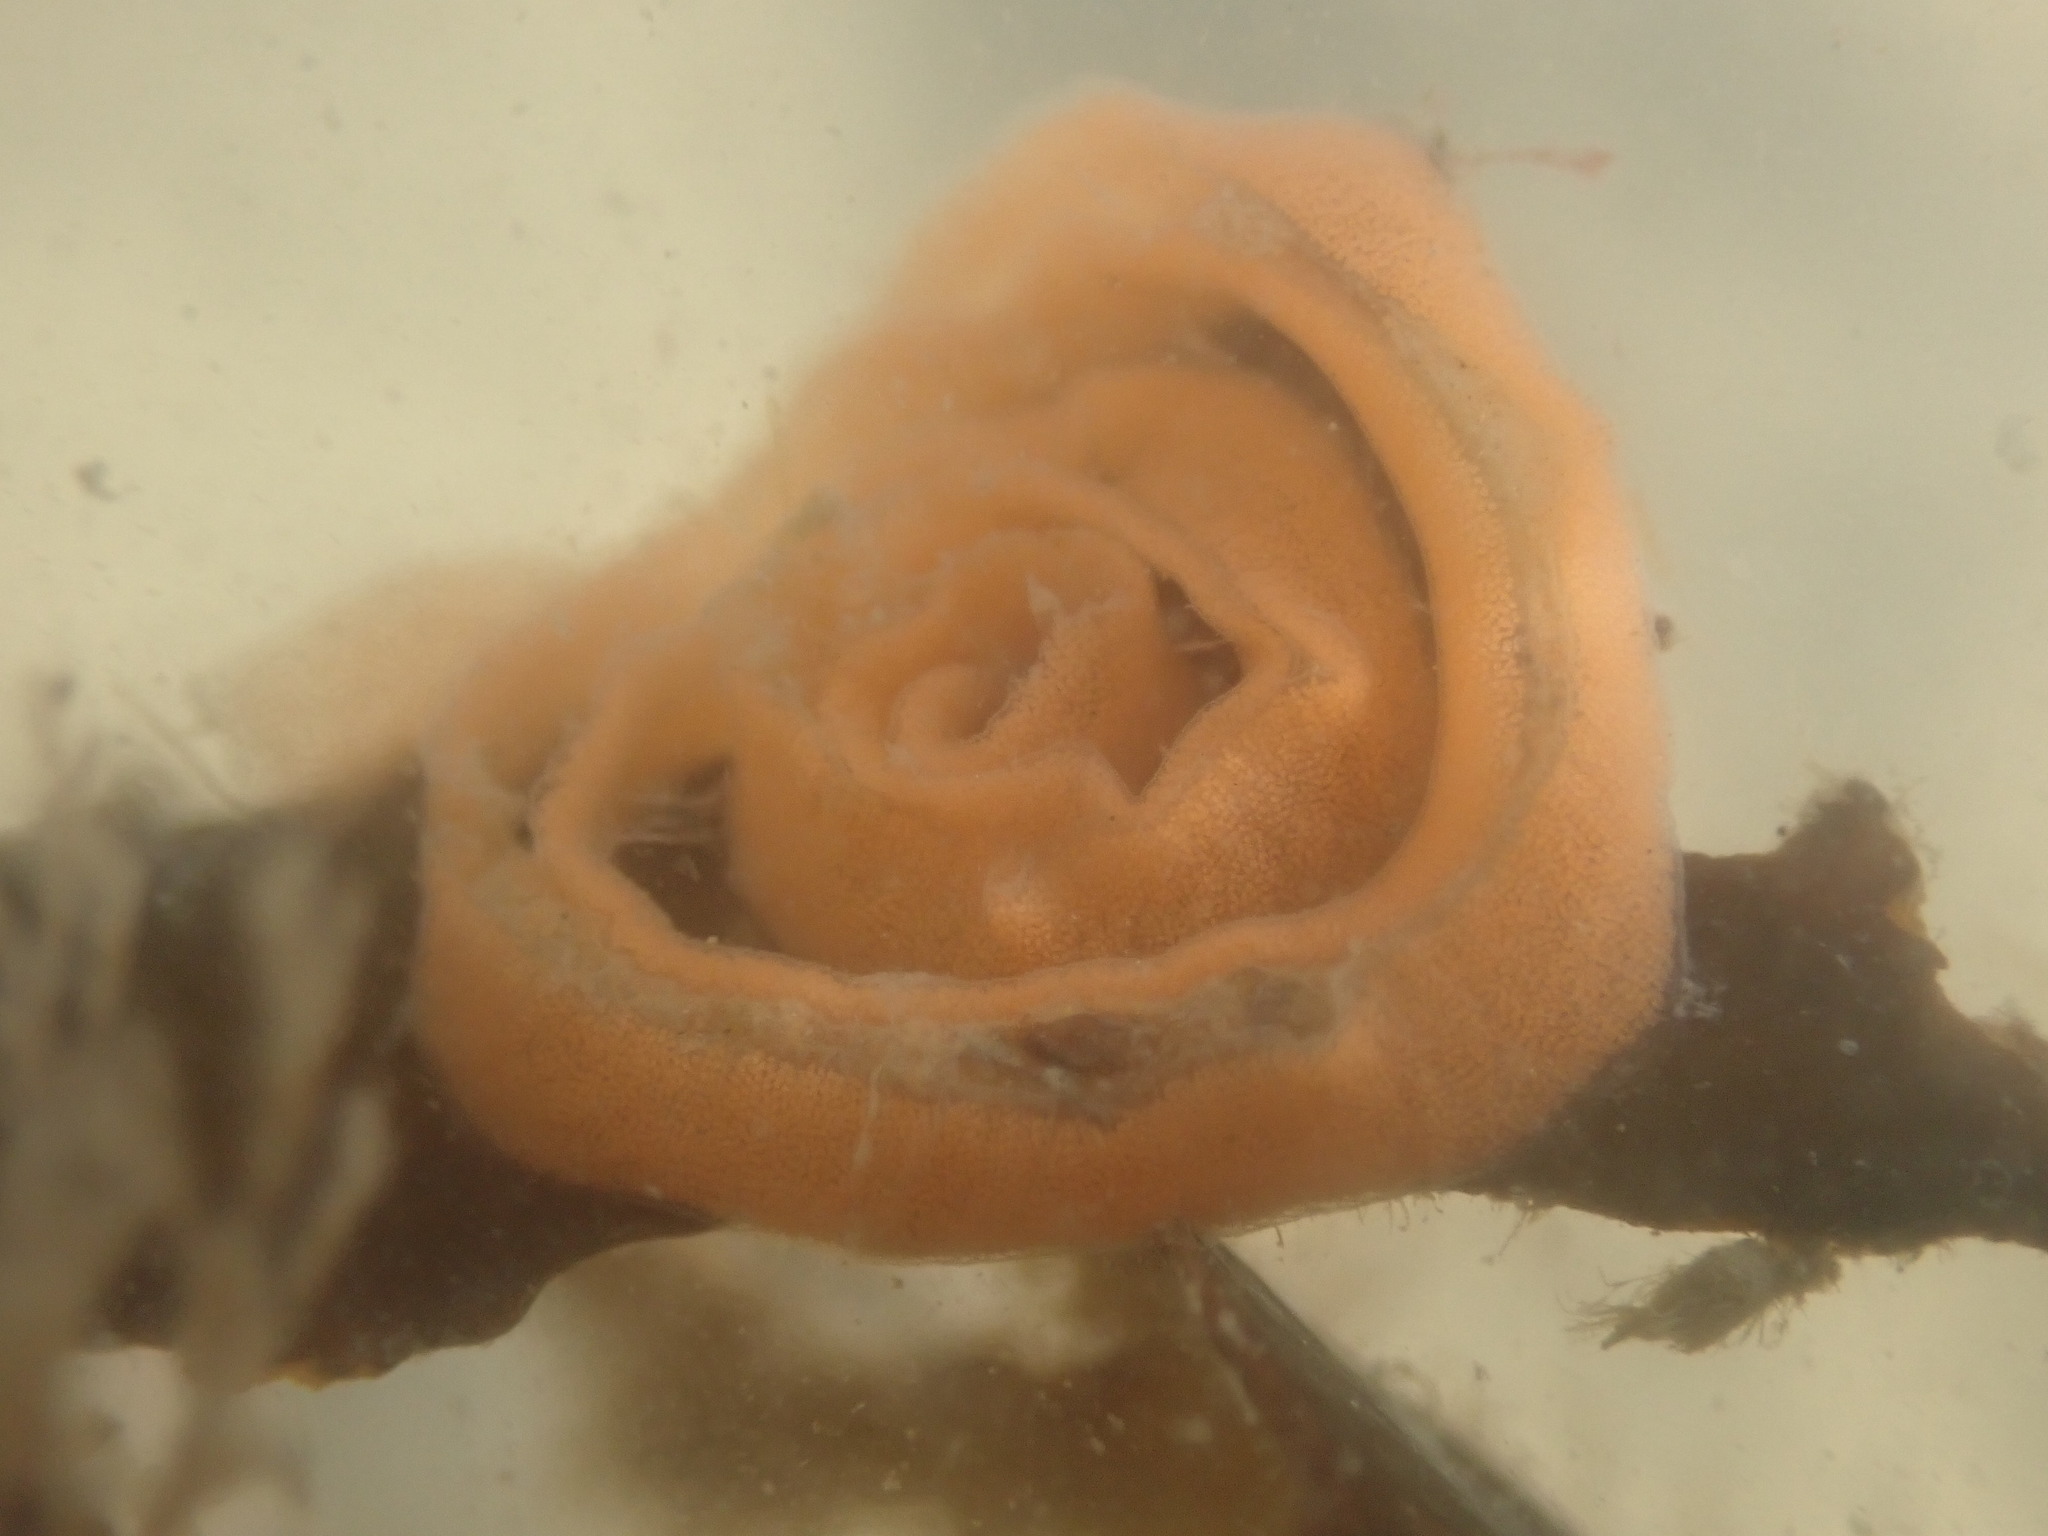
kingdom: Animalia
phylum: Mollusca
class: Gastropoda
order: Nudibranchia
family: Discodorididae
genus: Rostanga
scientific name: Rostanga muscula
